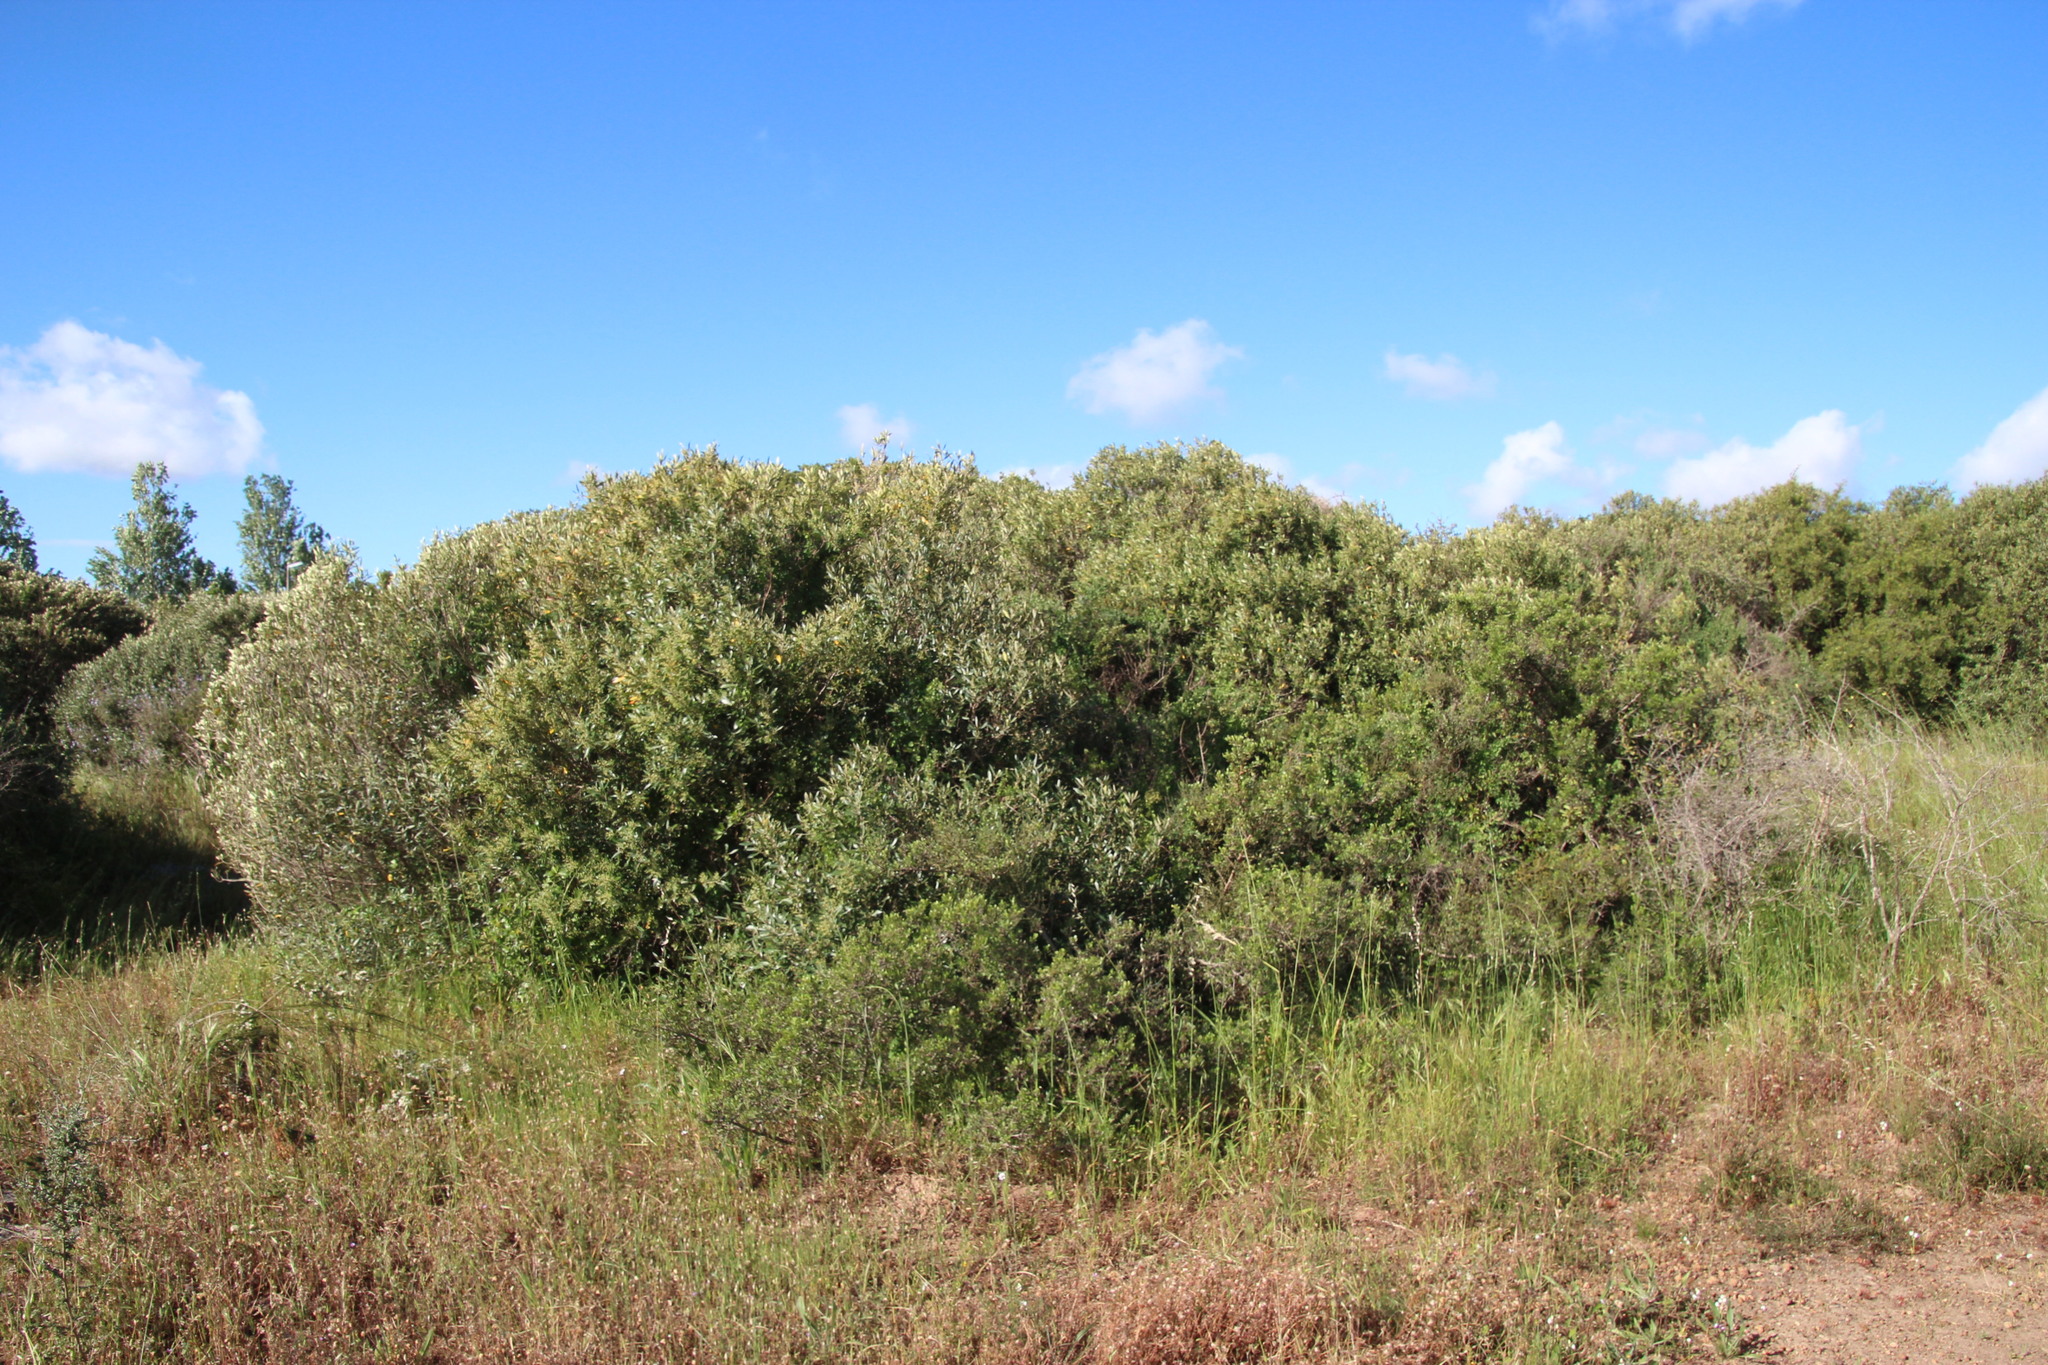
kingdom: Plantae
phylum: Tracheophyta
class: Magnoliopsida
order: Lamiales
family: Oleaceae
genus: Olea
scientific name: Olea europaea
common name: Olive
